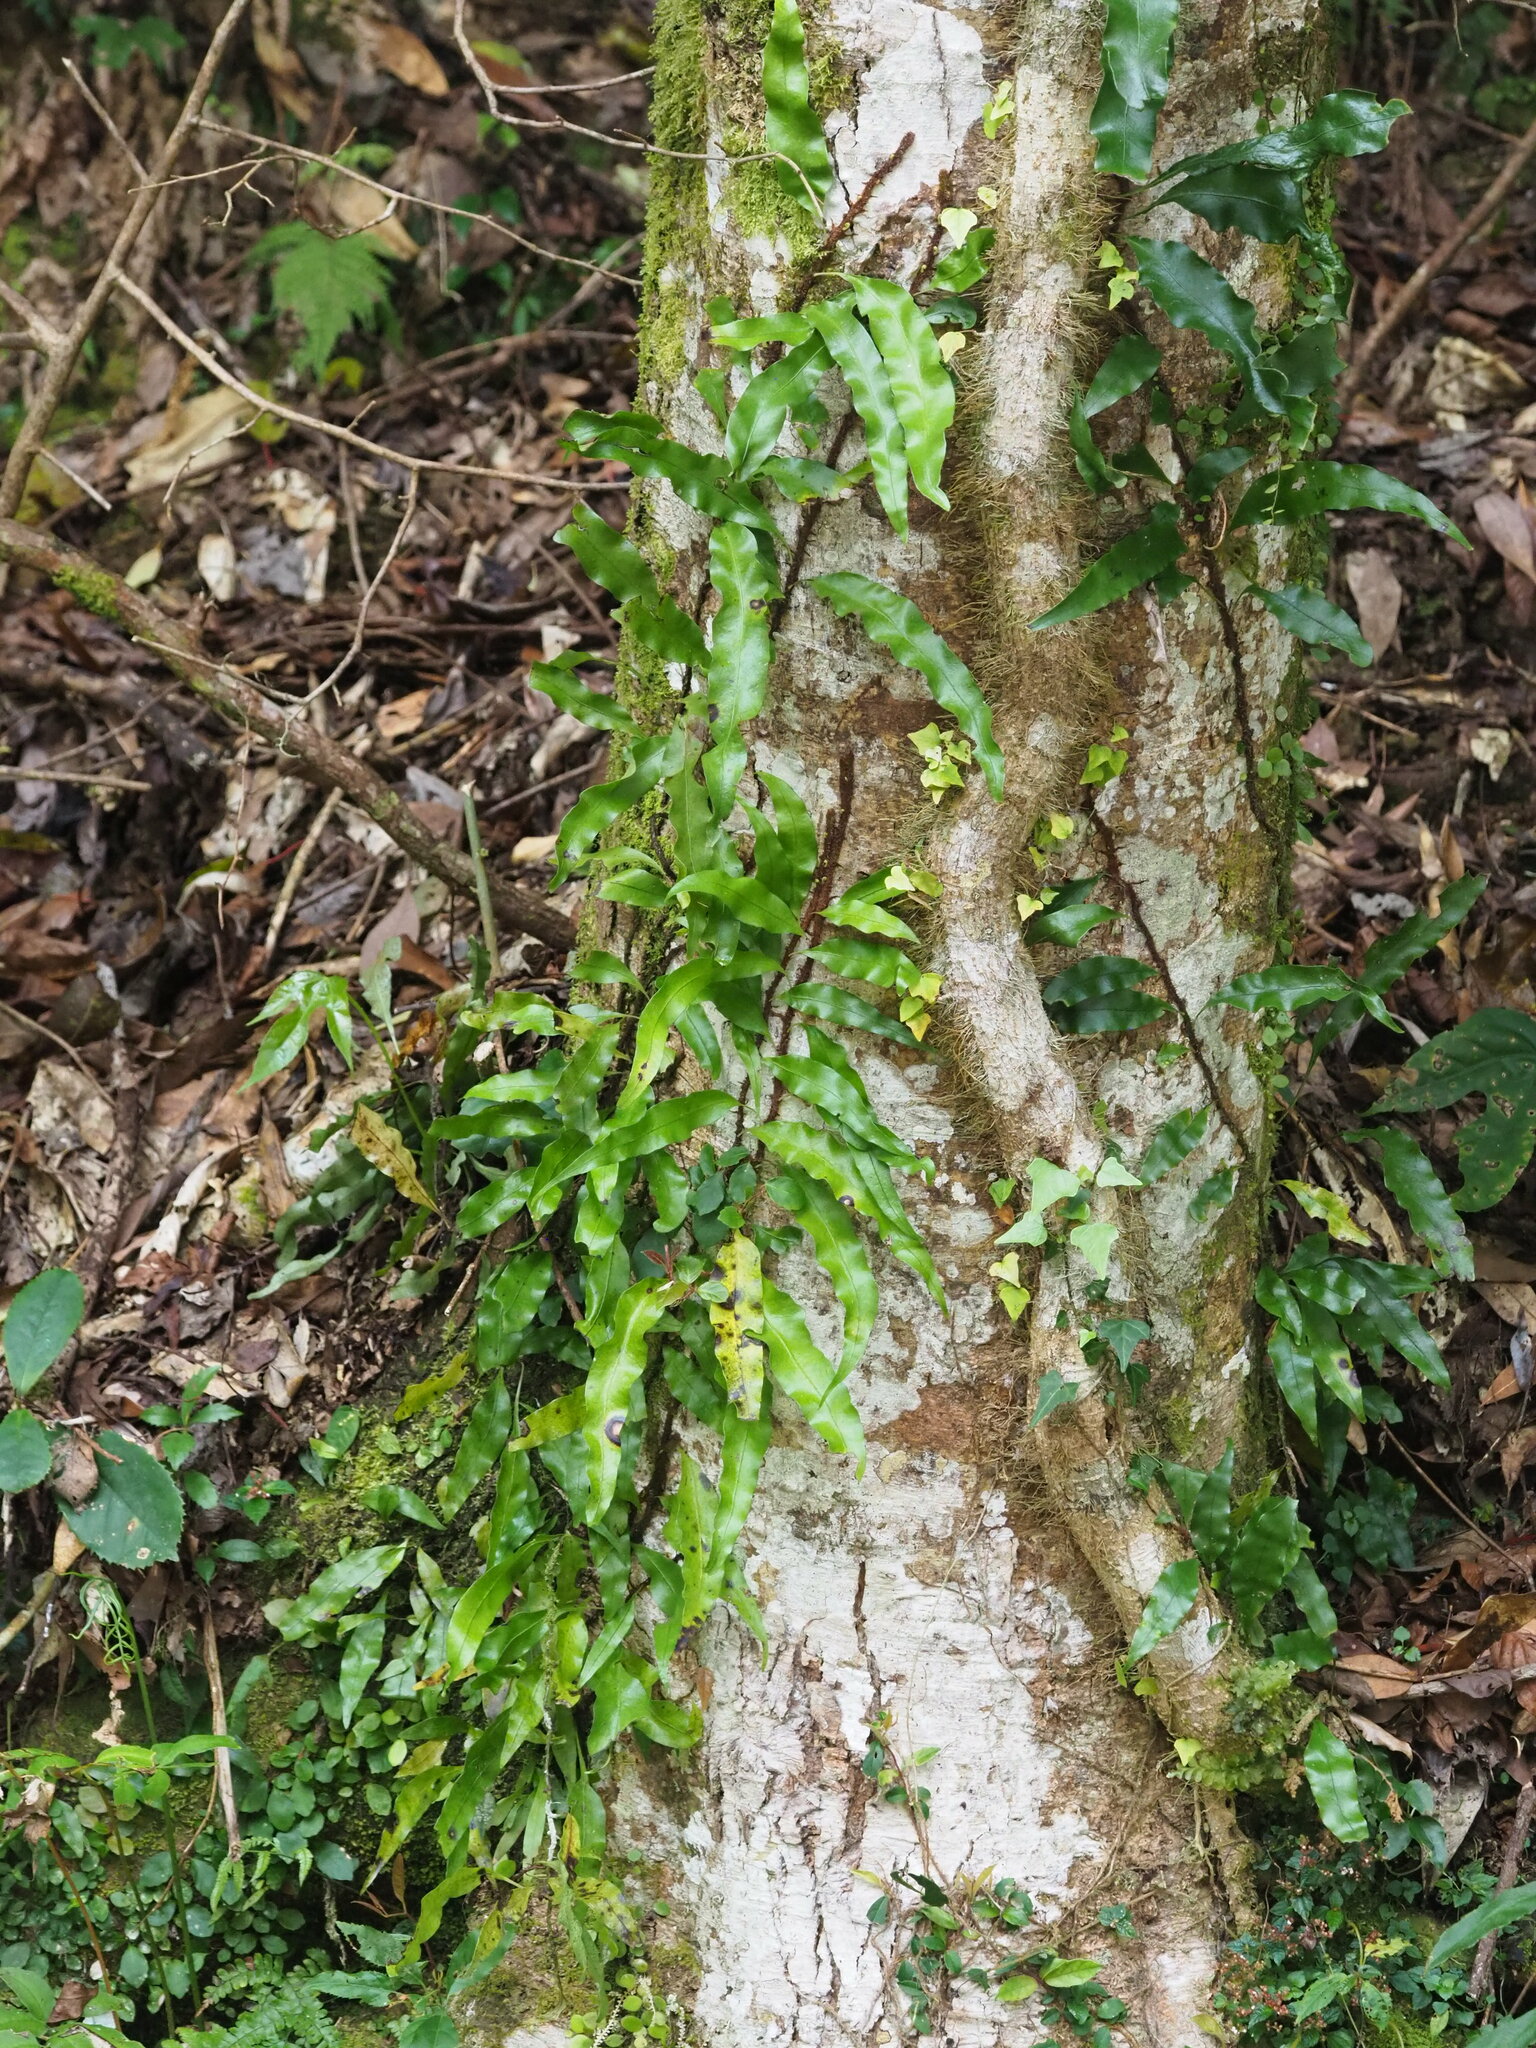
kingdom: Plantae
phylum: Tracheophyta
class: Polypodiopsida
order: Polypodiales
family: Polypodiaceae
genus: Lepisorus
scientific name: Lepisorus superficialis
